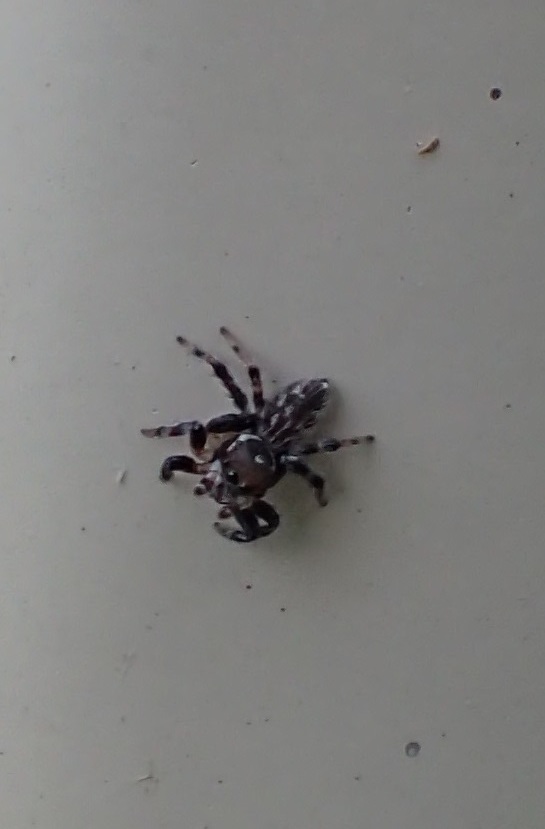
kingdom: Animalia
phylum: Arthropoda
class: Arachnida
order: Araneae
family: Salticidae
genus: Maratus
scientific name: Maratus griseus
